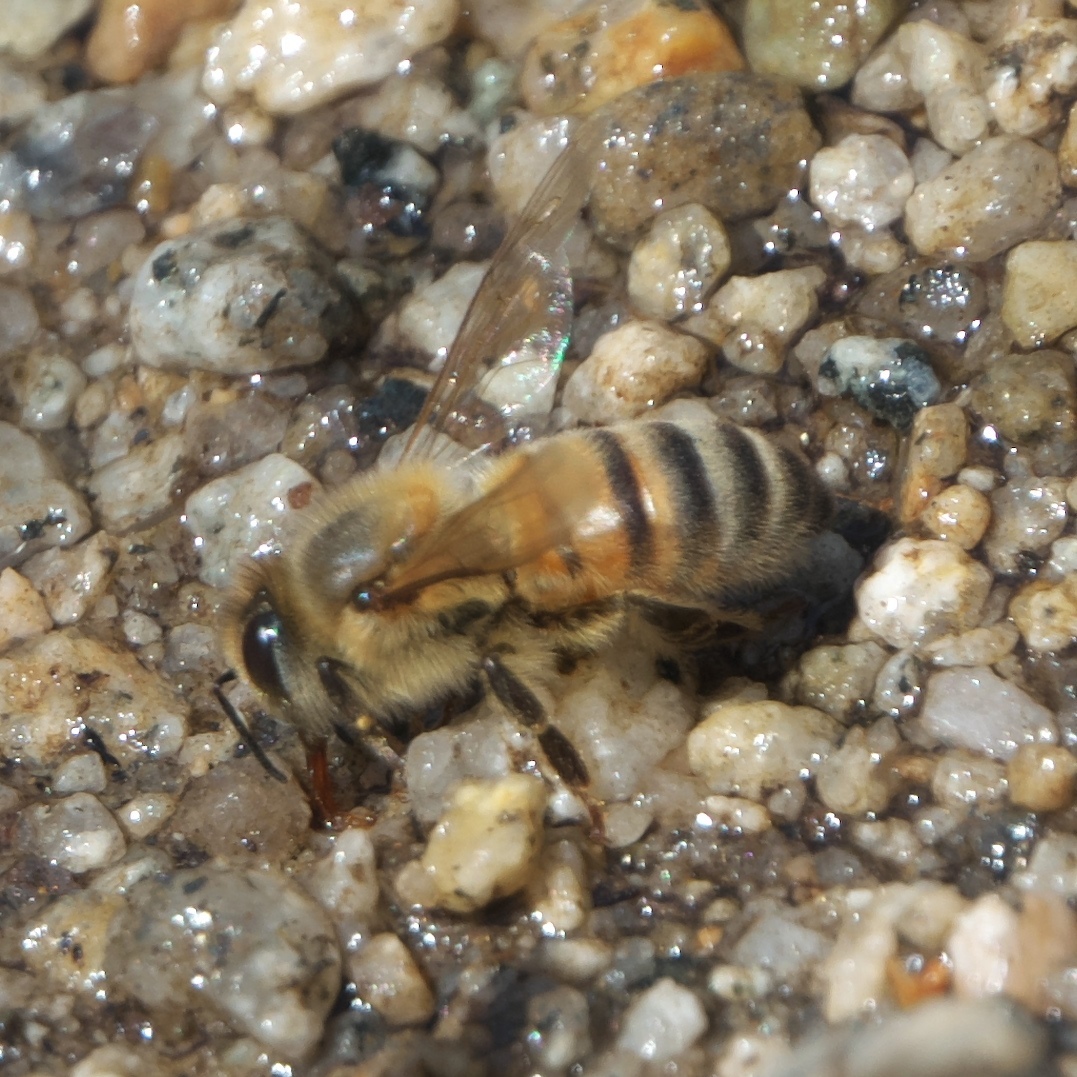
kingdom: Animalia
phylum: Arthropoda
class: Insecta
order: Hymenoptera
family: Apidae
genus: Apis
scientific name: Apis mellifera
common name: Honey bee
